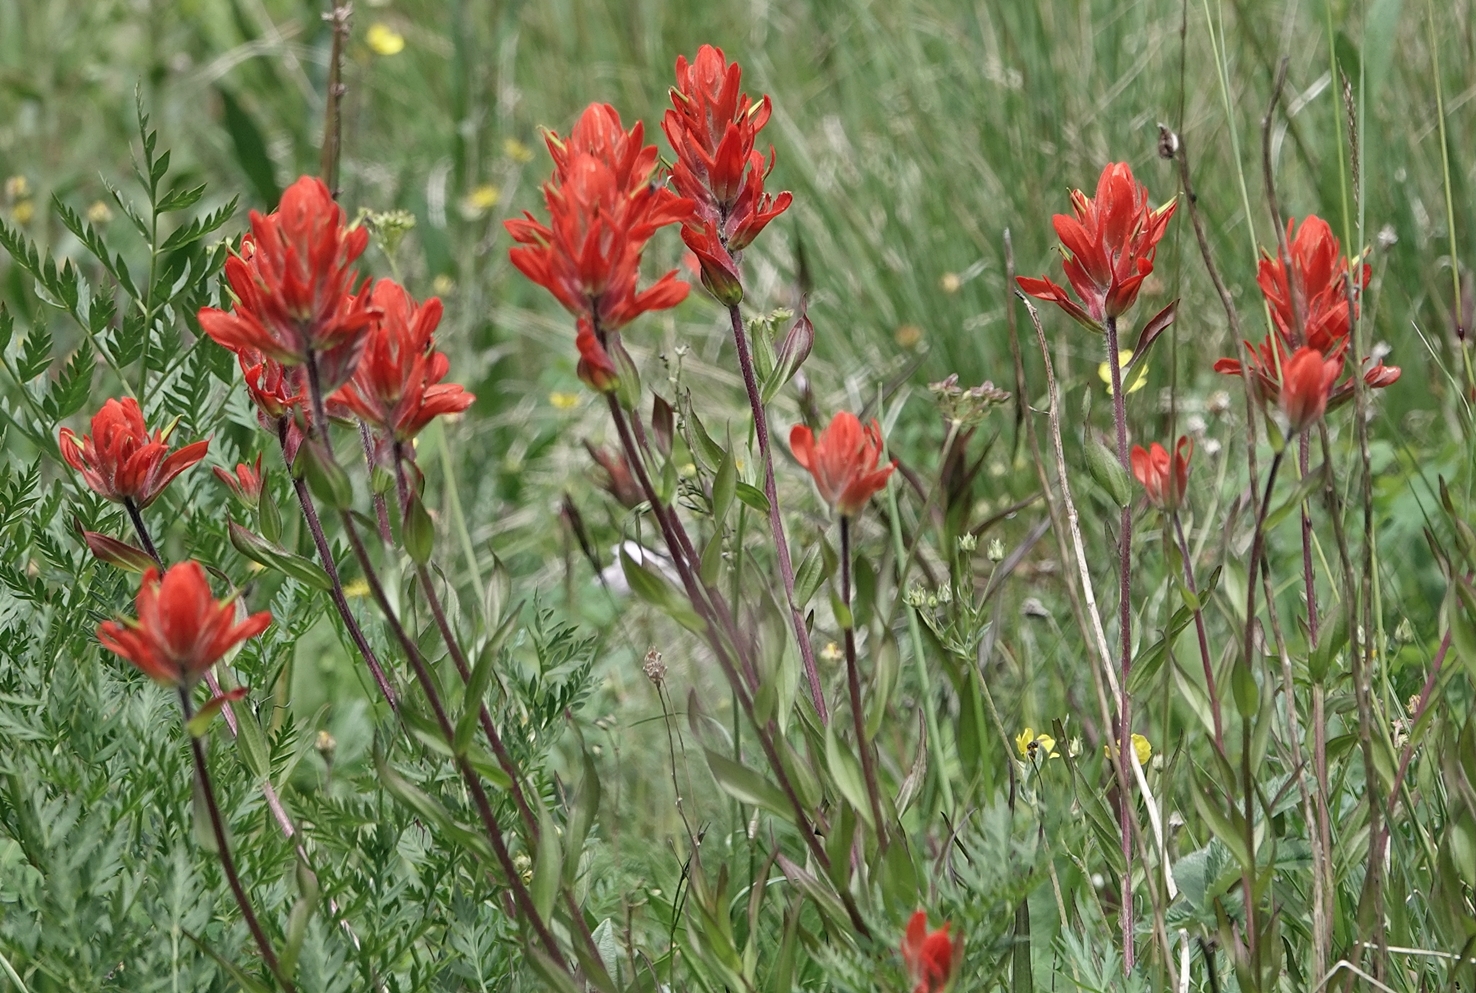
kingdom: Plantae
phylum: Tracheophyta
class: Magnoliopsida
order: Lamiales
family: Orobanchaceae
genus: Castilleja
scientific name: Castilleja miniata
